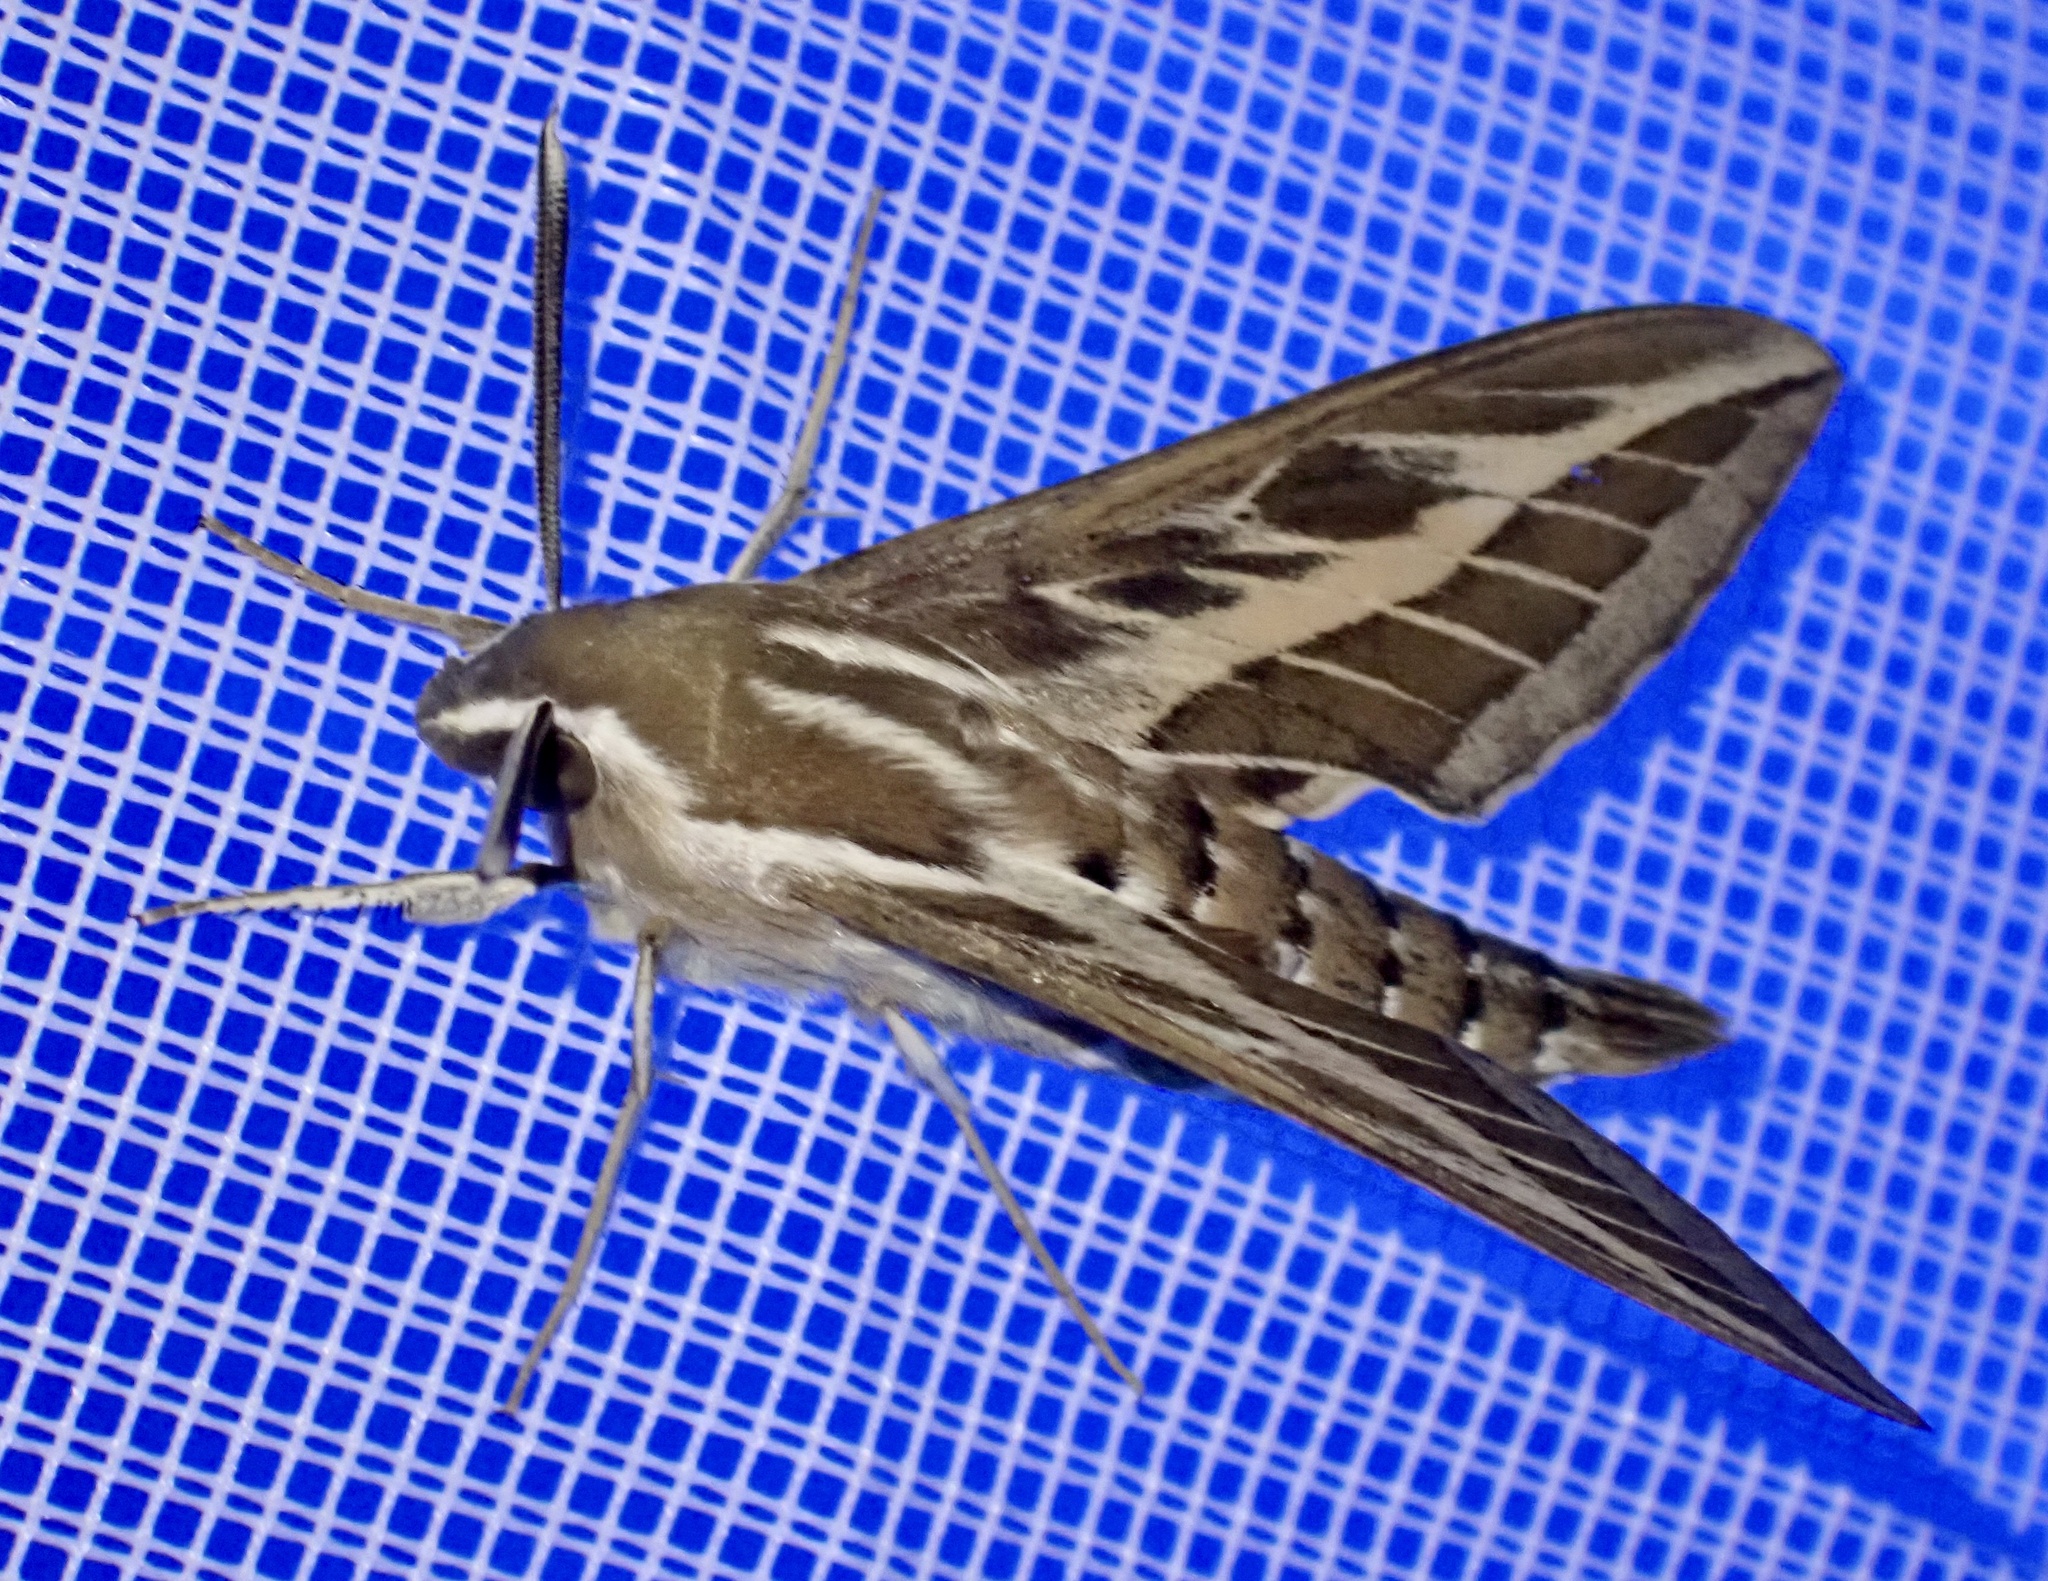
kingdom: Animalia
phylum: Arthropoda
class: Insecta
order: Lepidoptera
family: Sphingidae
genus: Hyles
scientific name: Hyles livornica
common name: Striped hawk-moth
